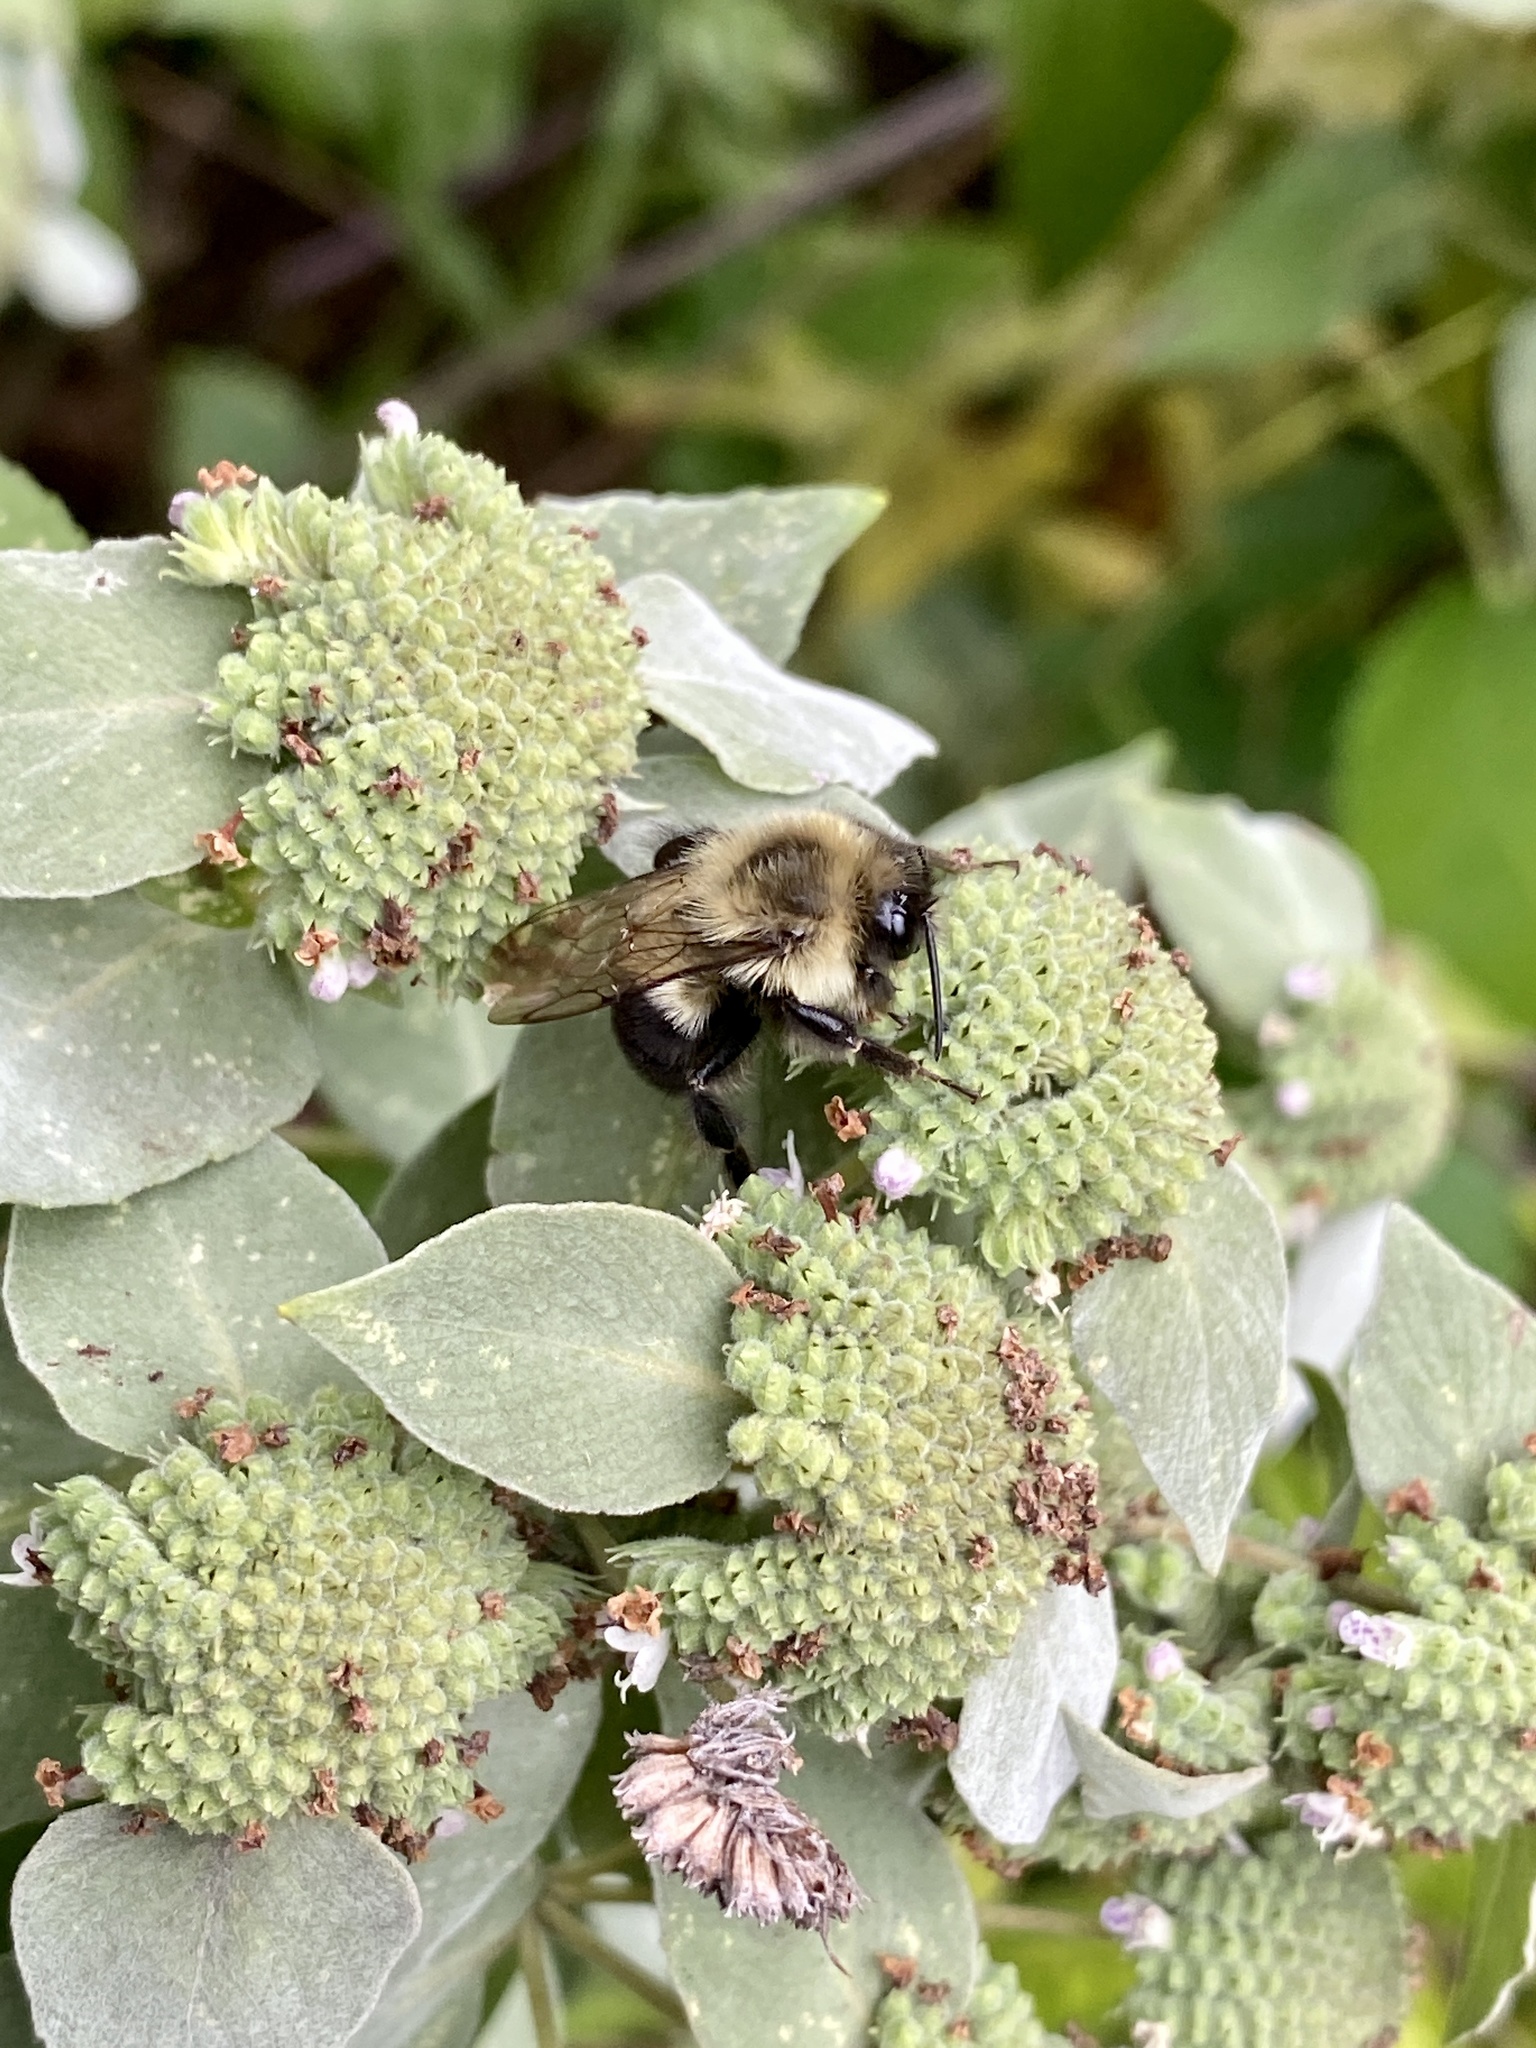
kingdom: Animalia
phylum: Arthropoda
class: Insecta
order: Hymenoptera
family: Apidae
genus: Bombus
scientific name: Bombus impatiens
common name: Common eastern bumble bee
